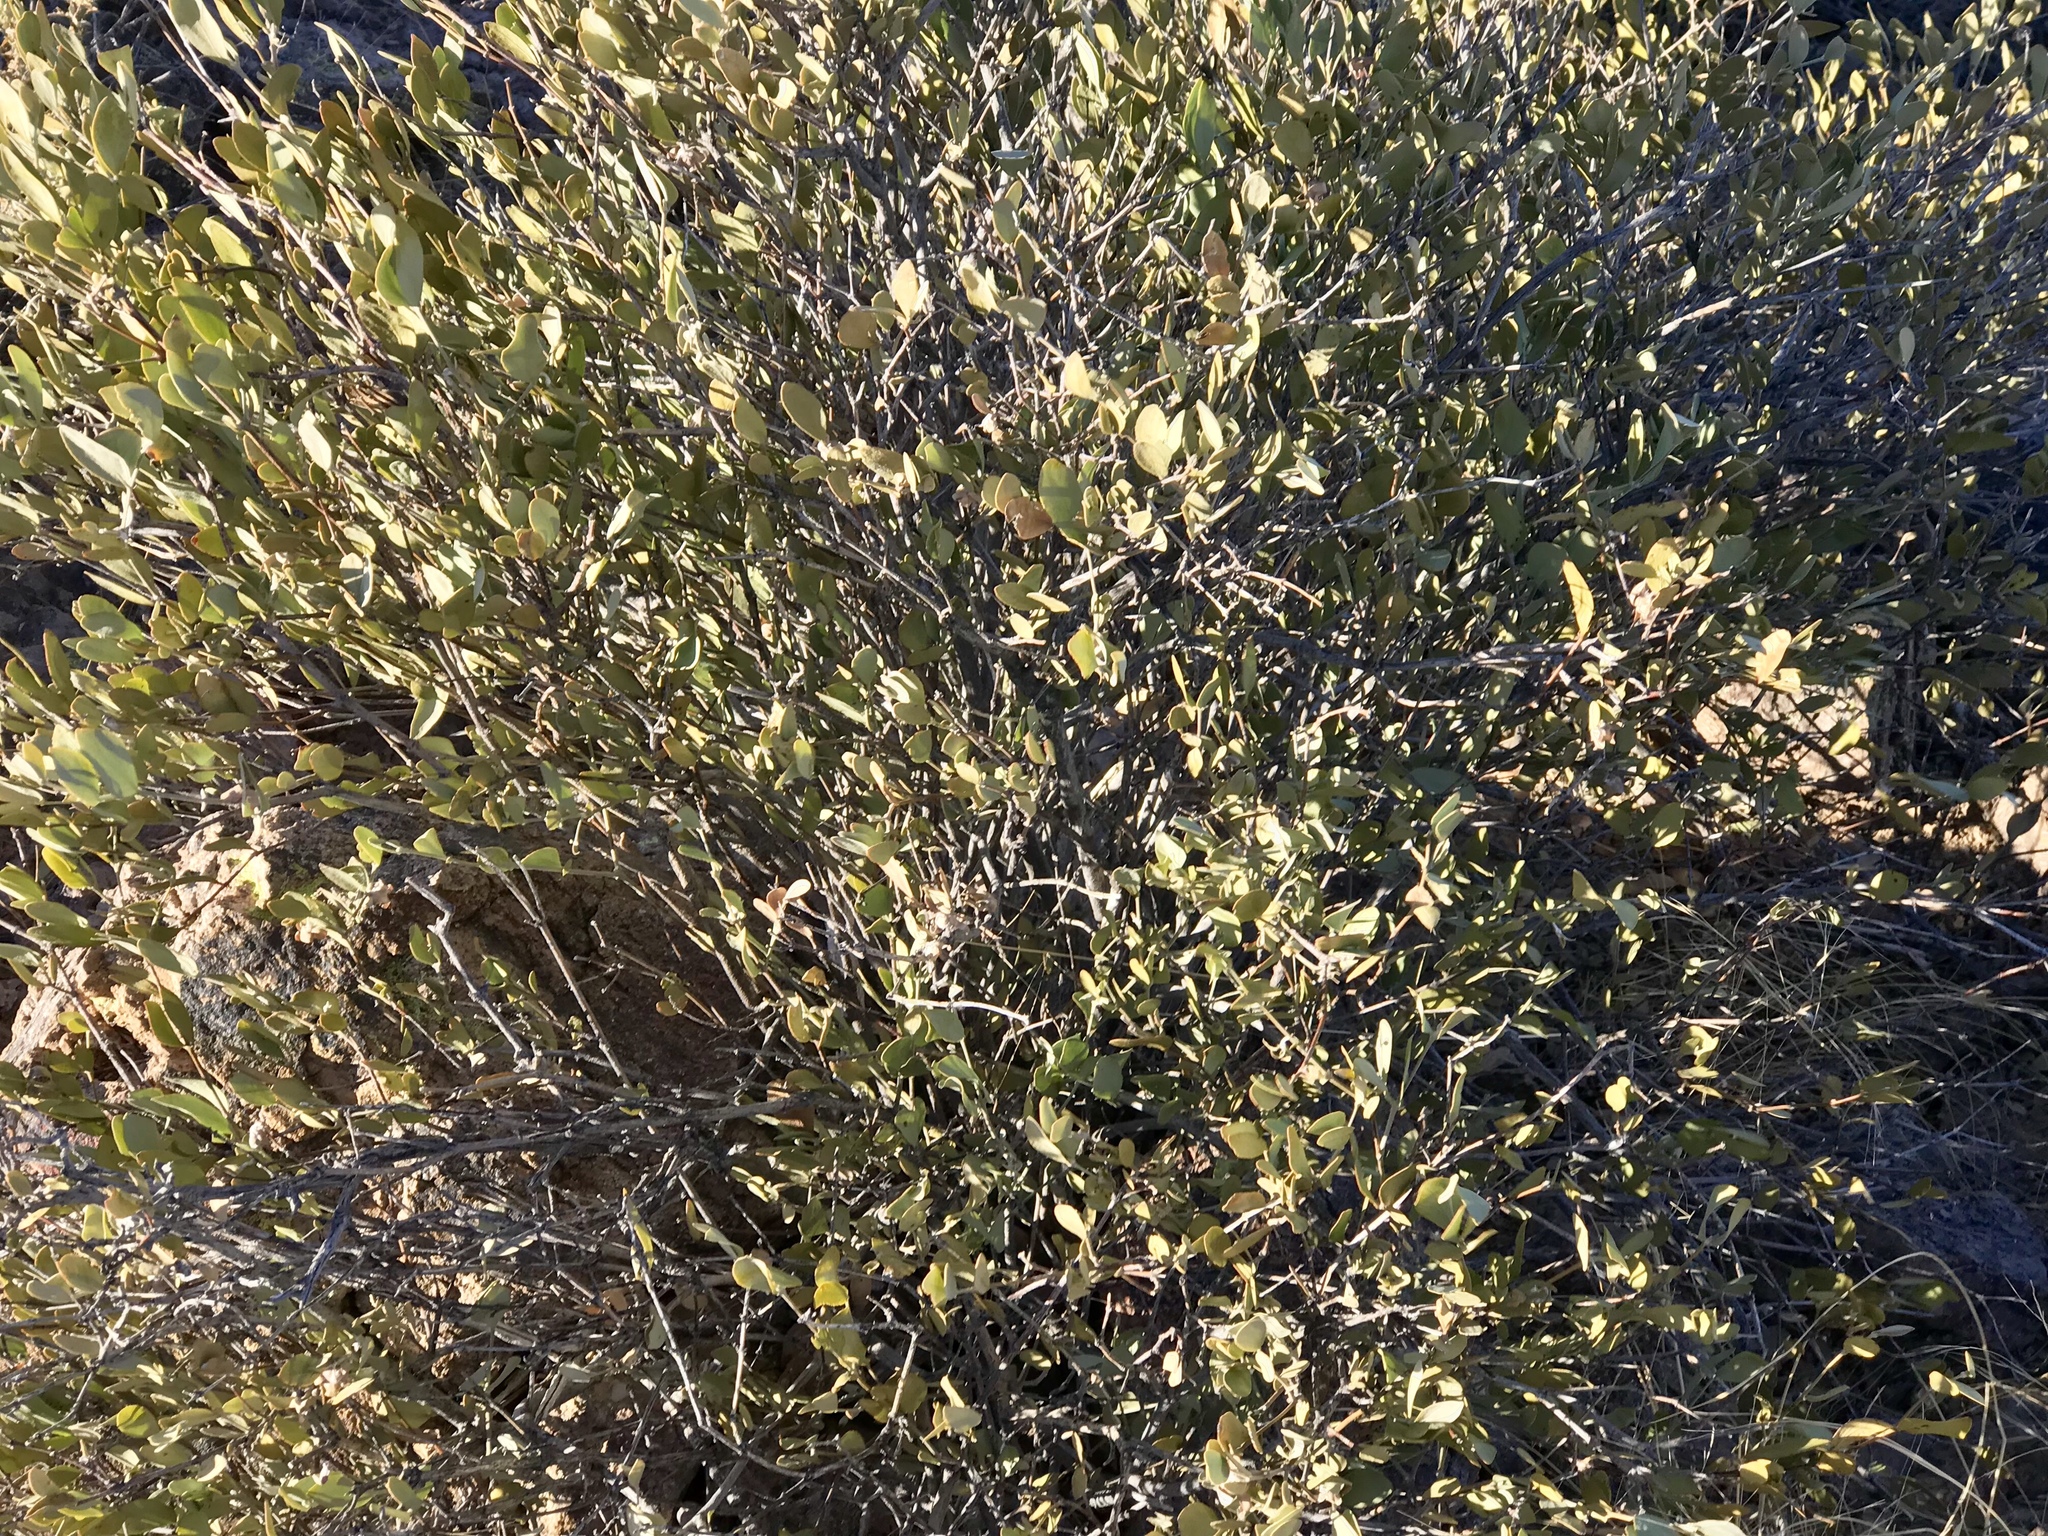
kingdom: Plantae
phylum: Tracheophyta
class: Magnoliopsida
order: Caryophyllales
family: Simmondsiaceae
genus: Simmondsia
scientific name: Simmondsia chinensis
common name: Jojoba
